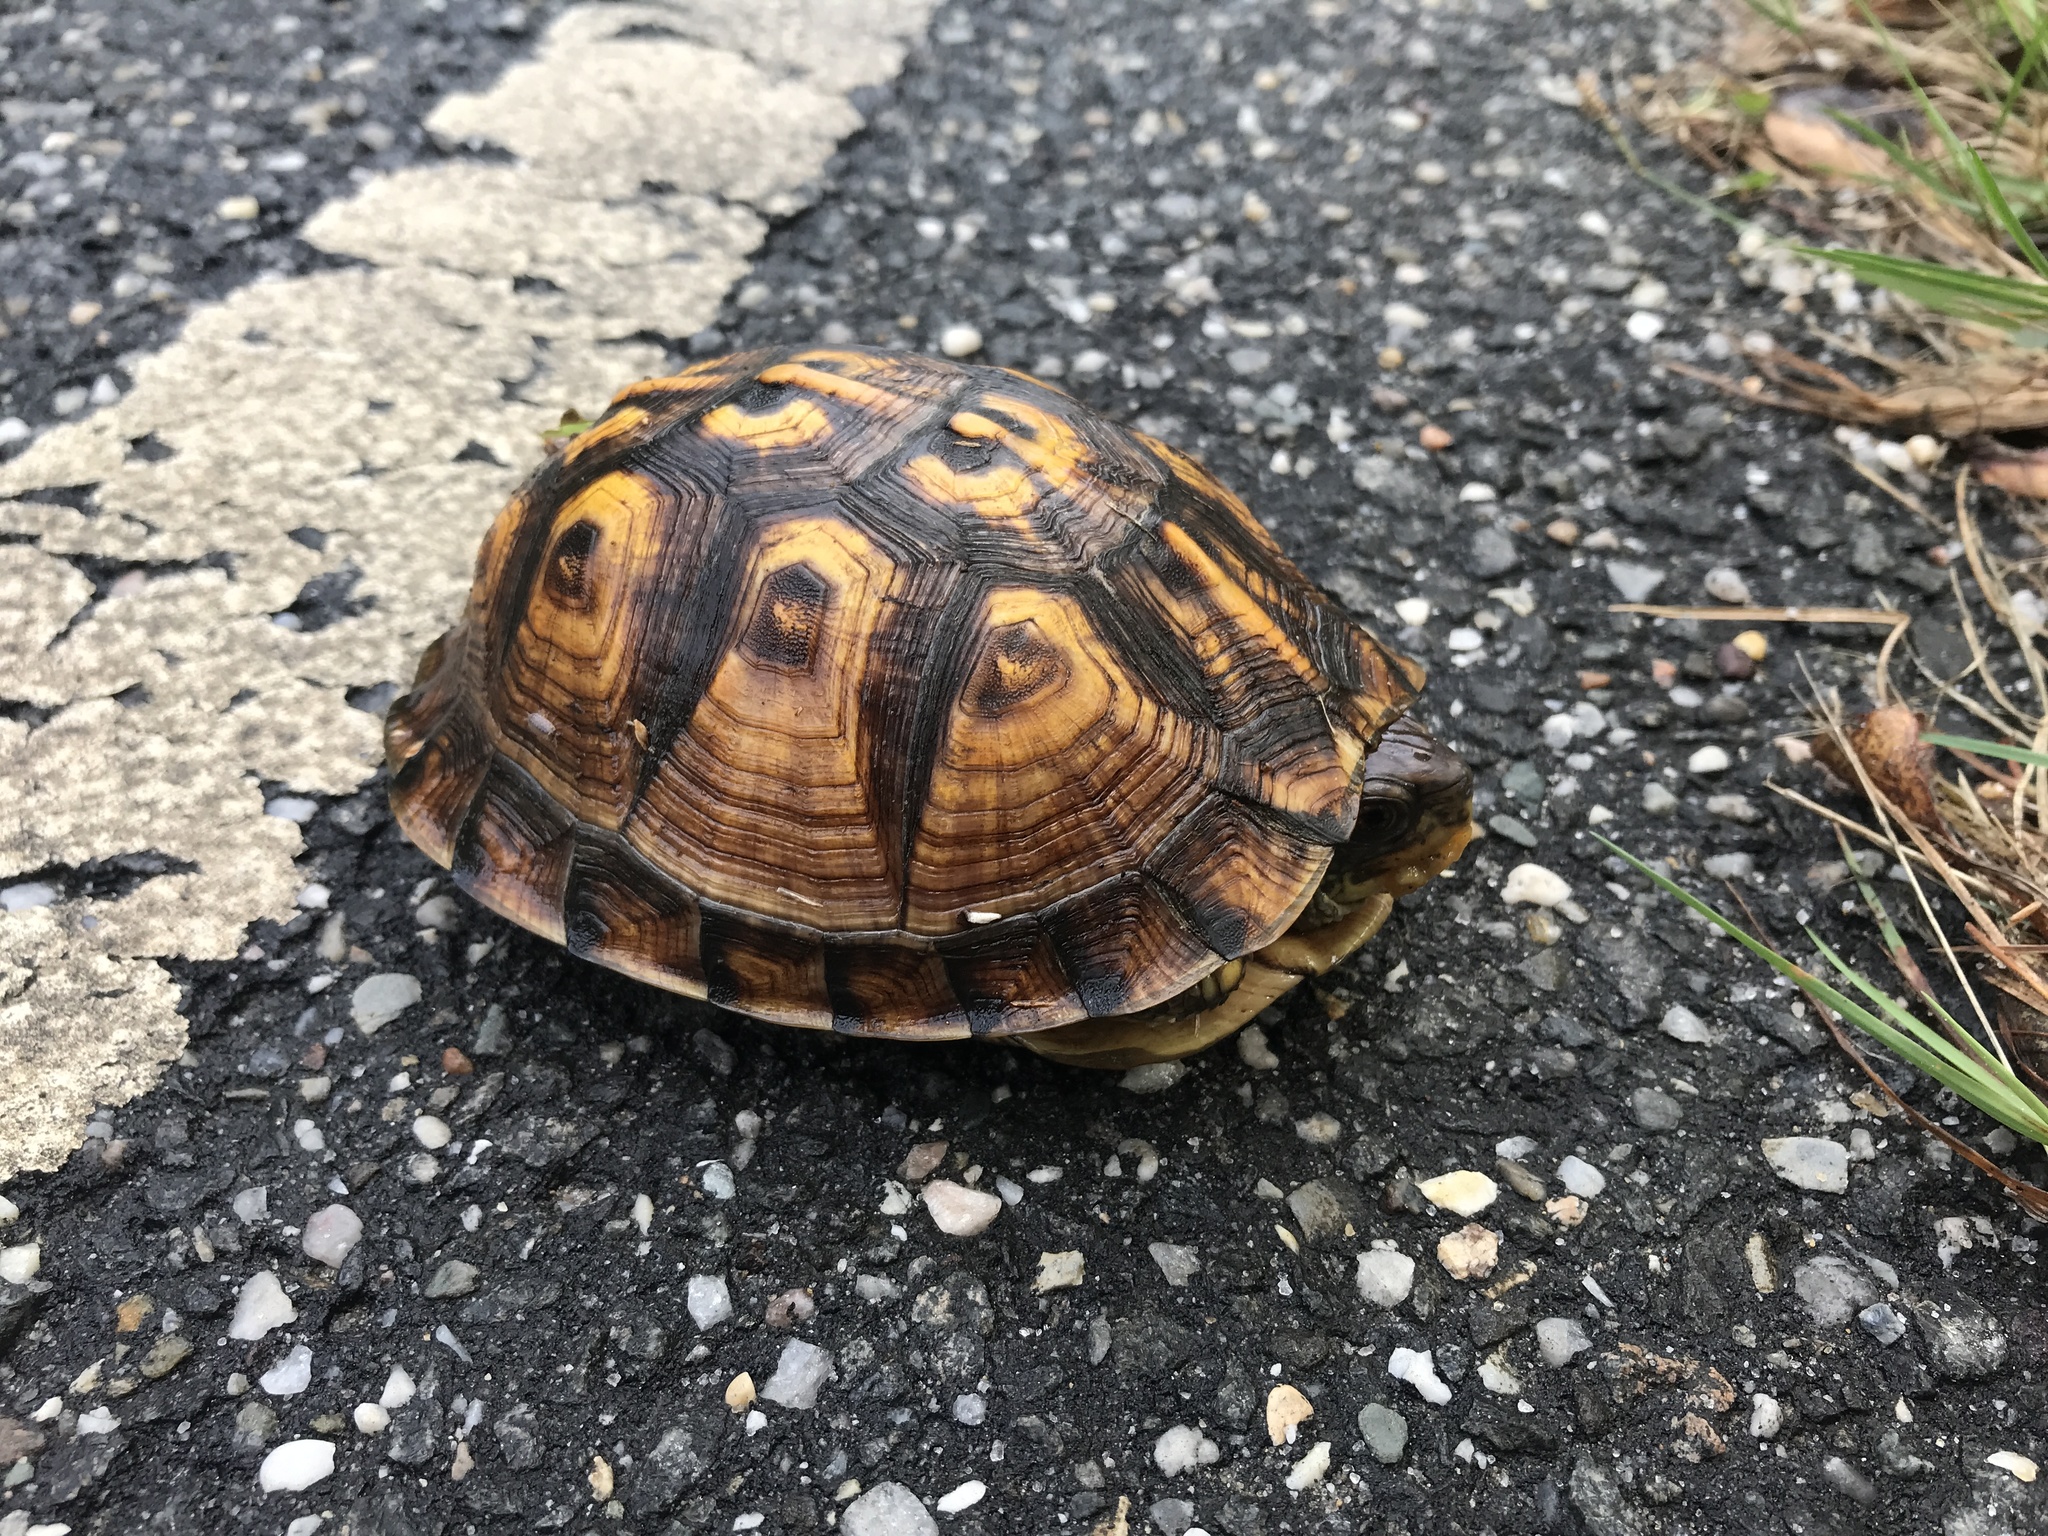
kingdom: Animalia
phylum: Chordata
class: Testudines
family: Emydidae
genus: Terrapene
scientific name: Terrapene carolina
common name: Common box turtle
